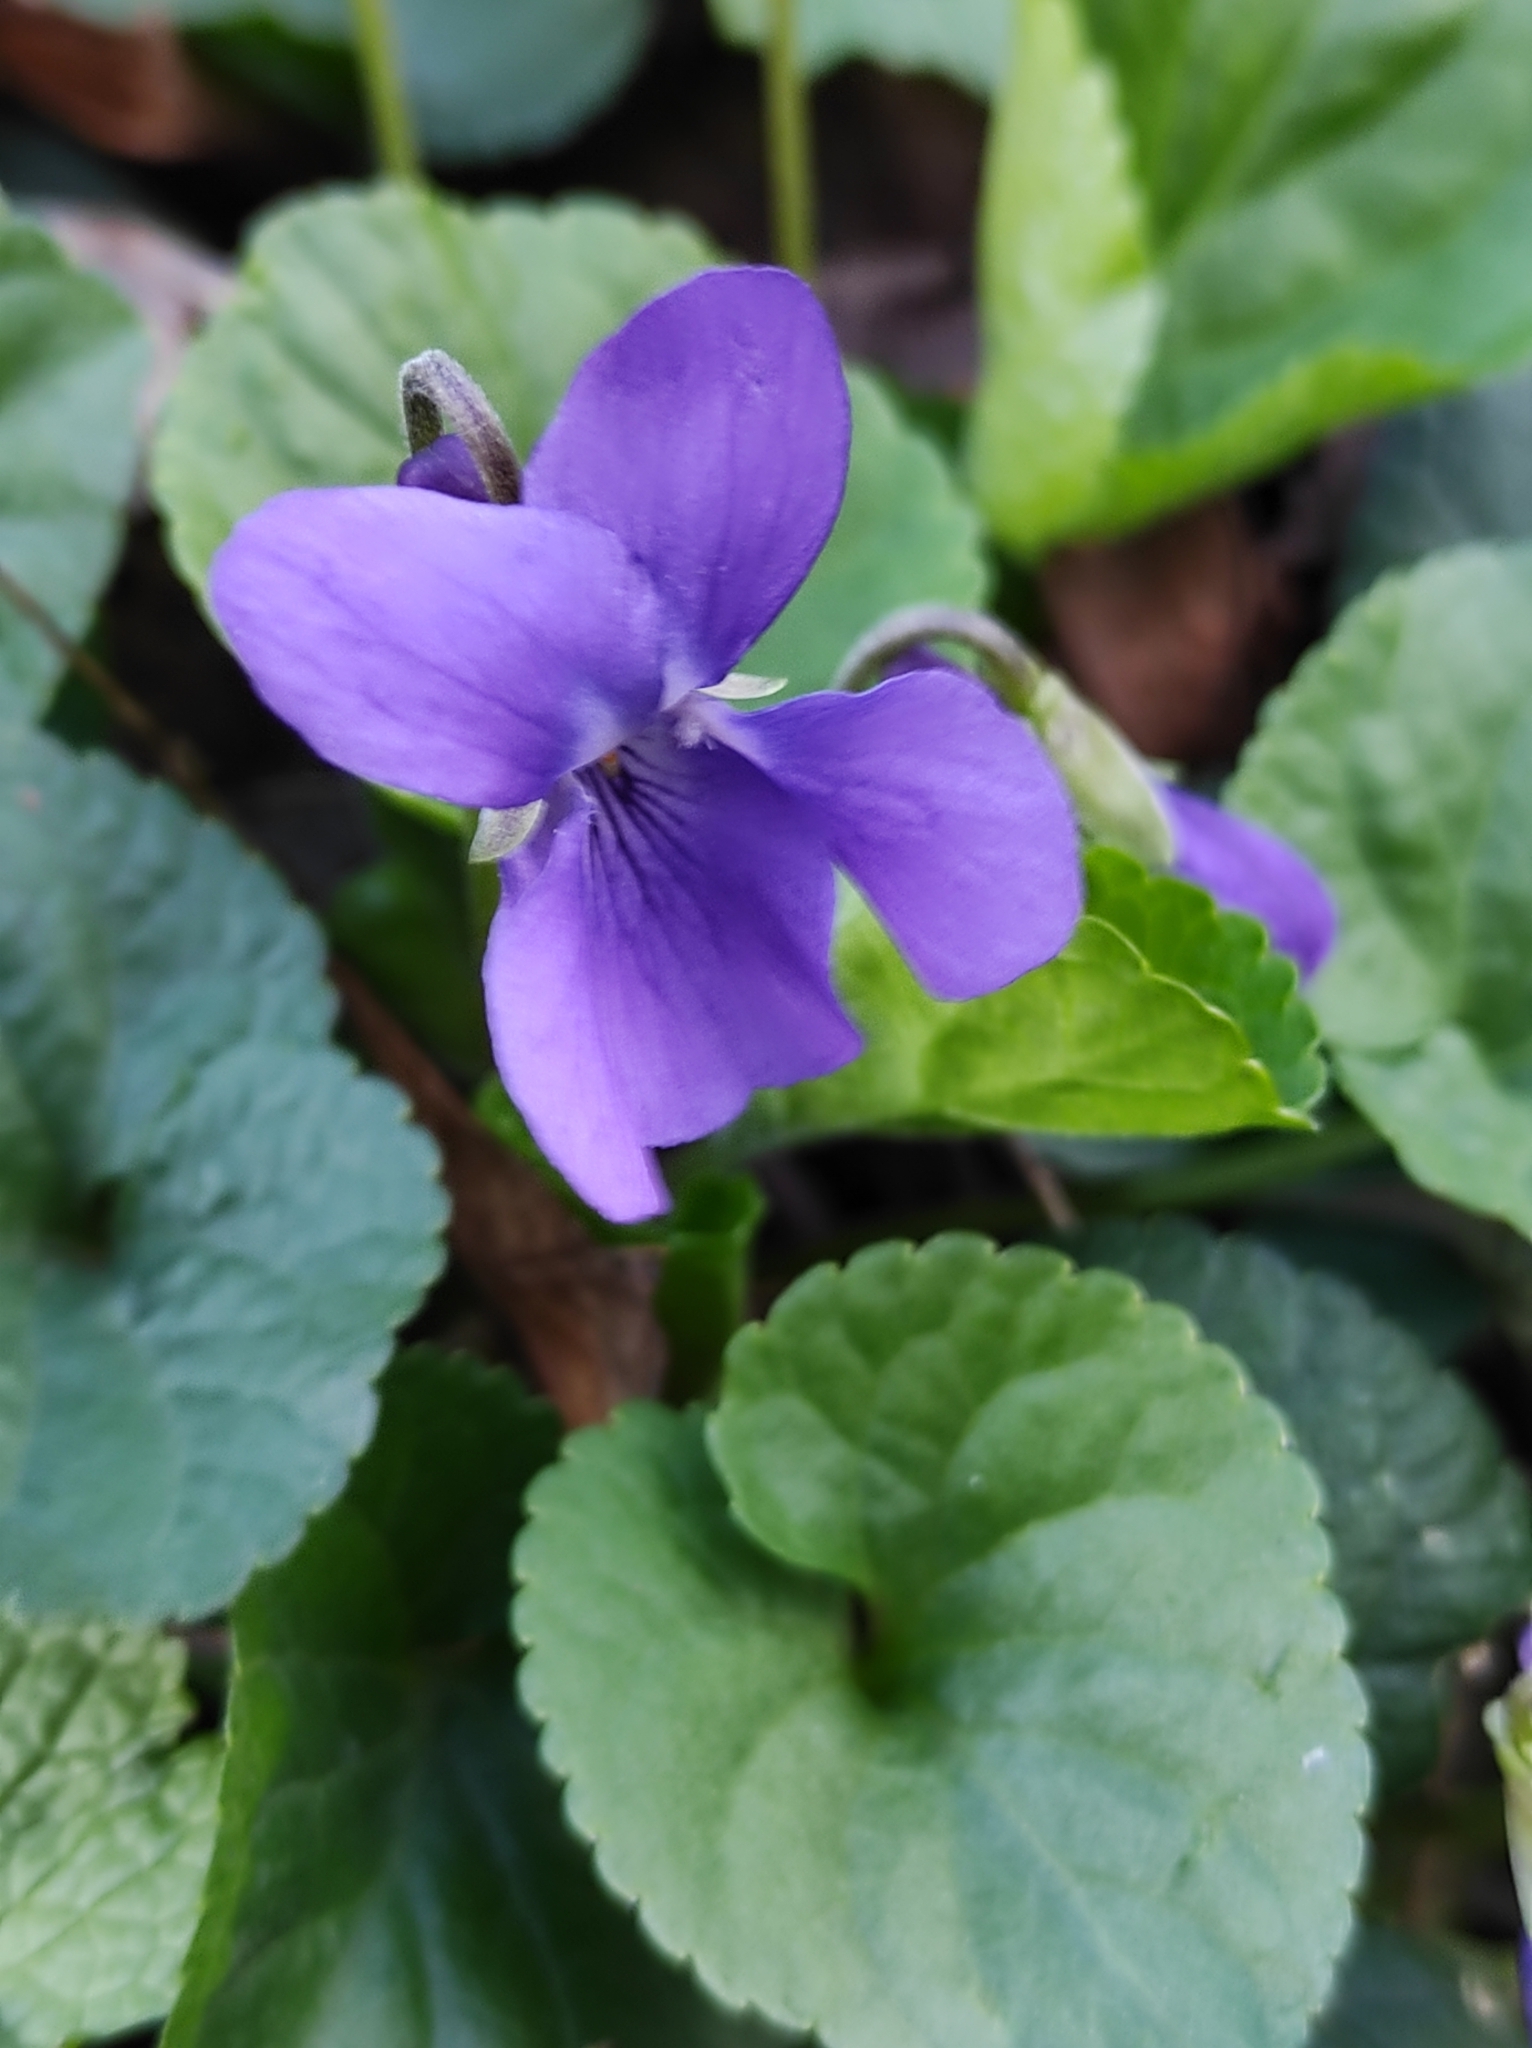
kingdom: Plantae
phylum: Tracheophyta
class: Magnoliopsida
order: Malpighiales
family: Violaceae
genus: Viola
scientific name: Viola odorata
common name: Sweet violet
